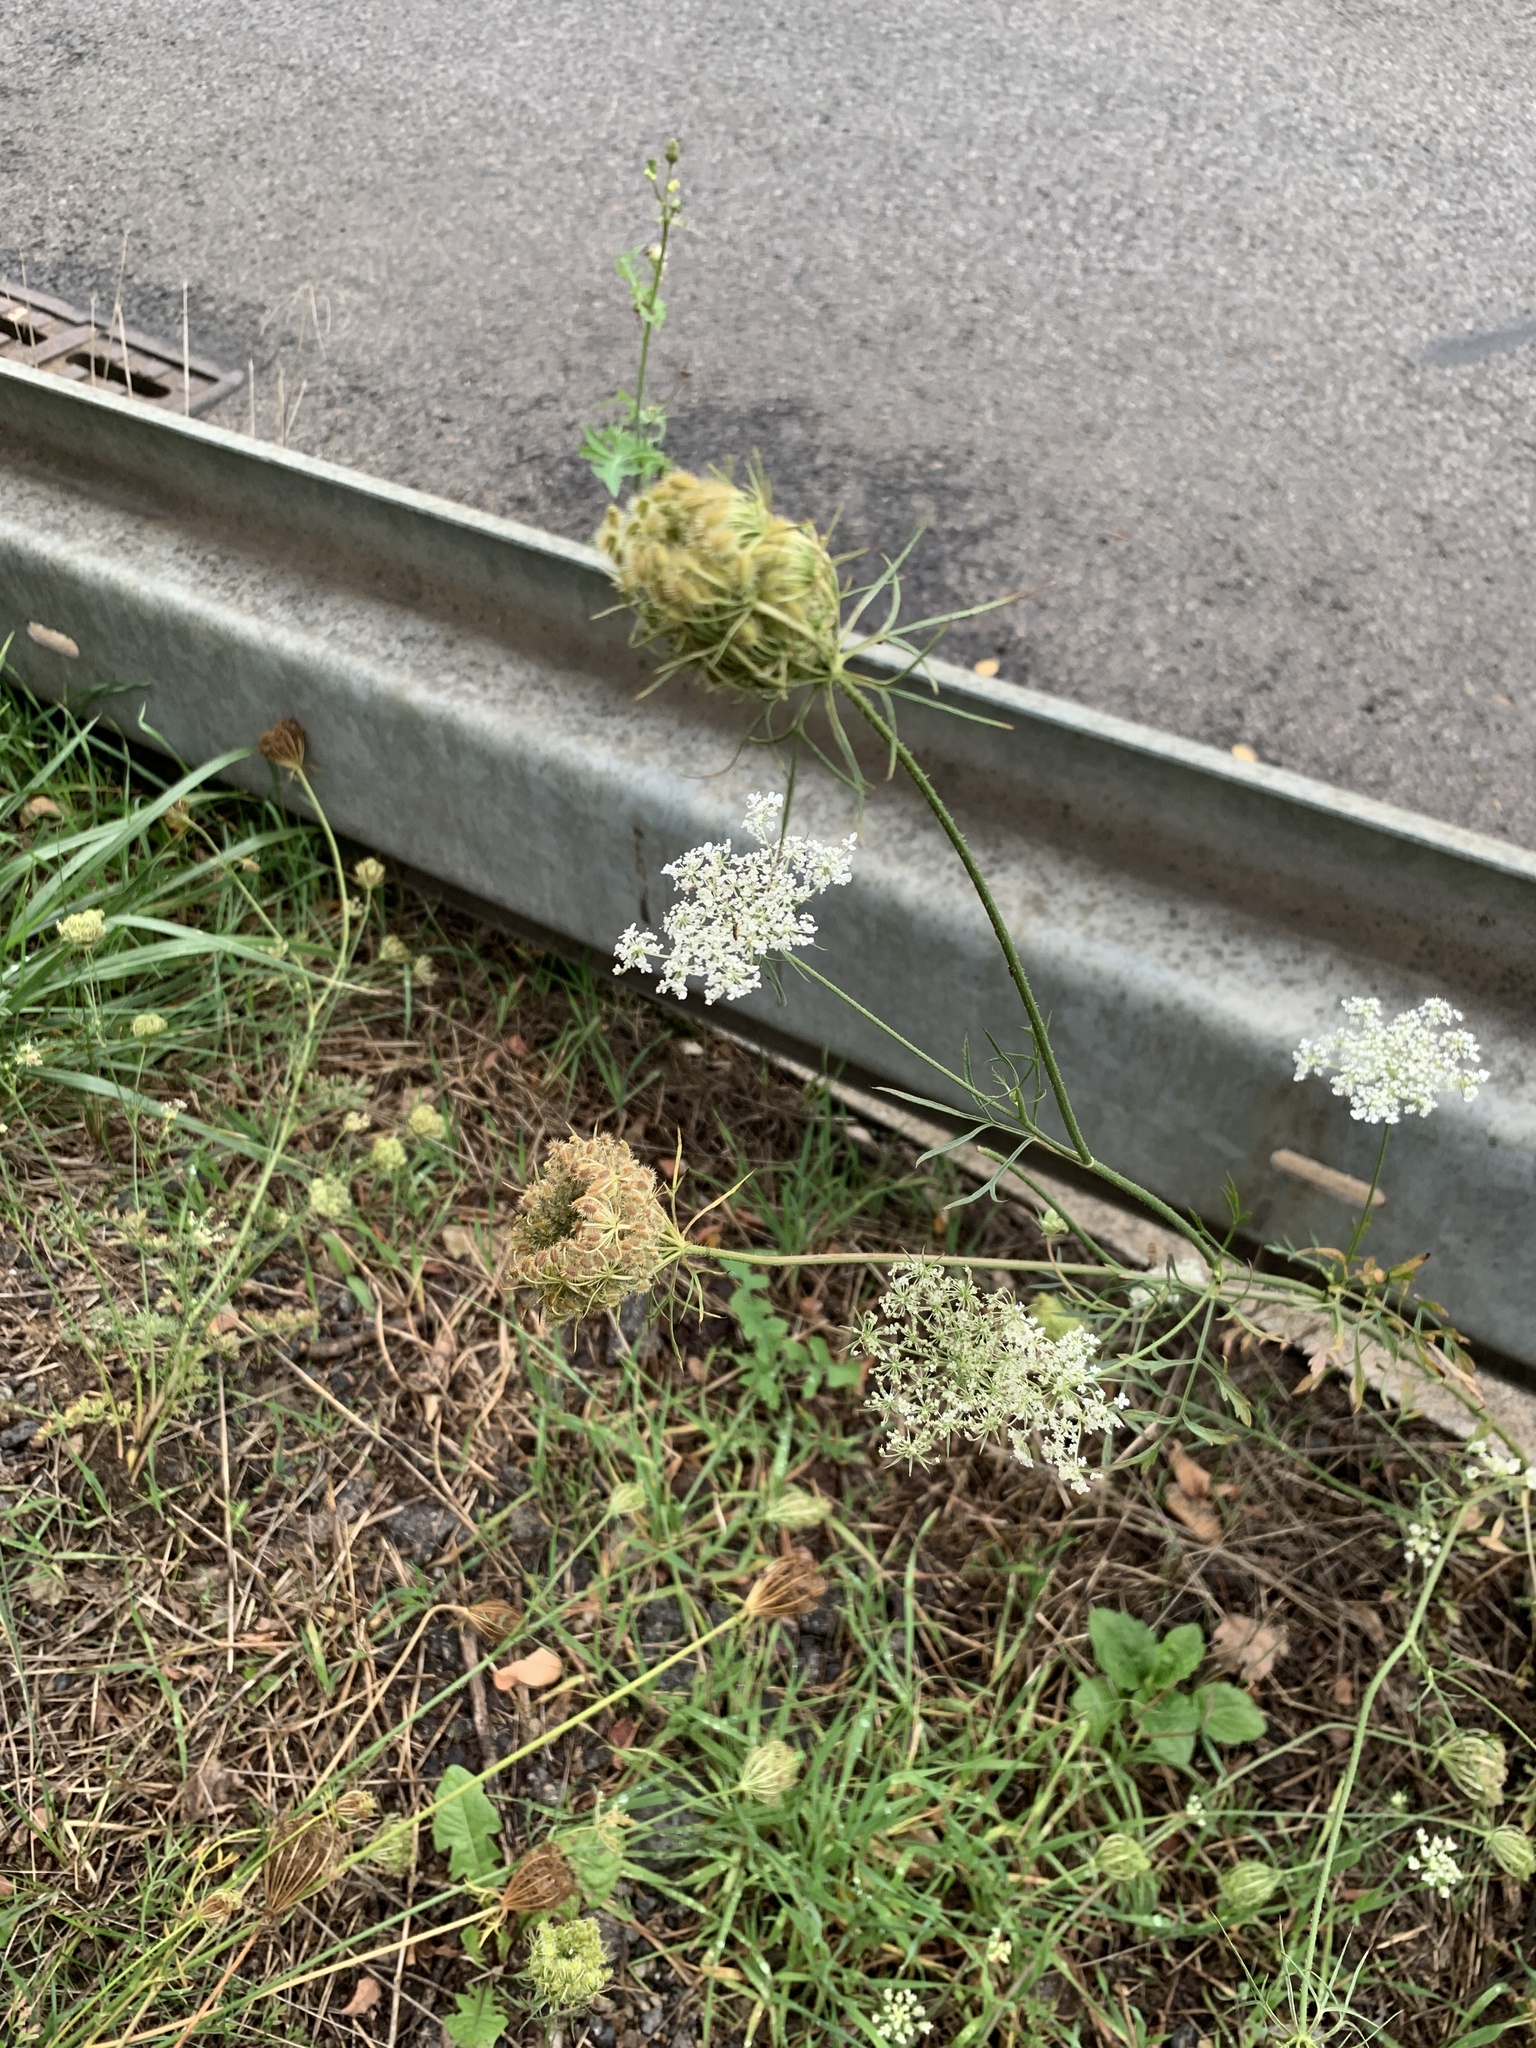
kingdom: Plantae
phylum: Tracheophyta
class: Magnoliopsida
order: Apiales
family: Apiaceae
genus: Daucus
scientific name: Daucus carota
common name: Wild carrot
